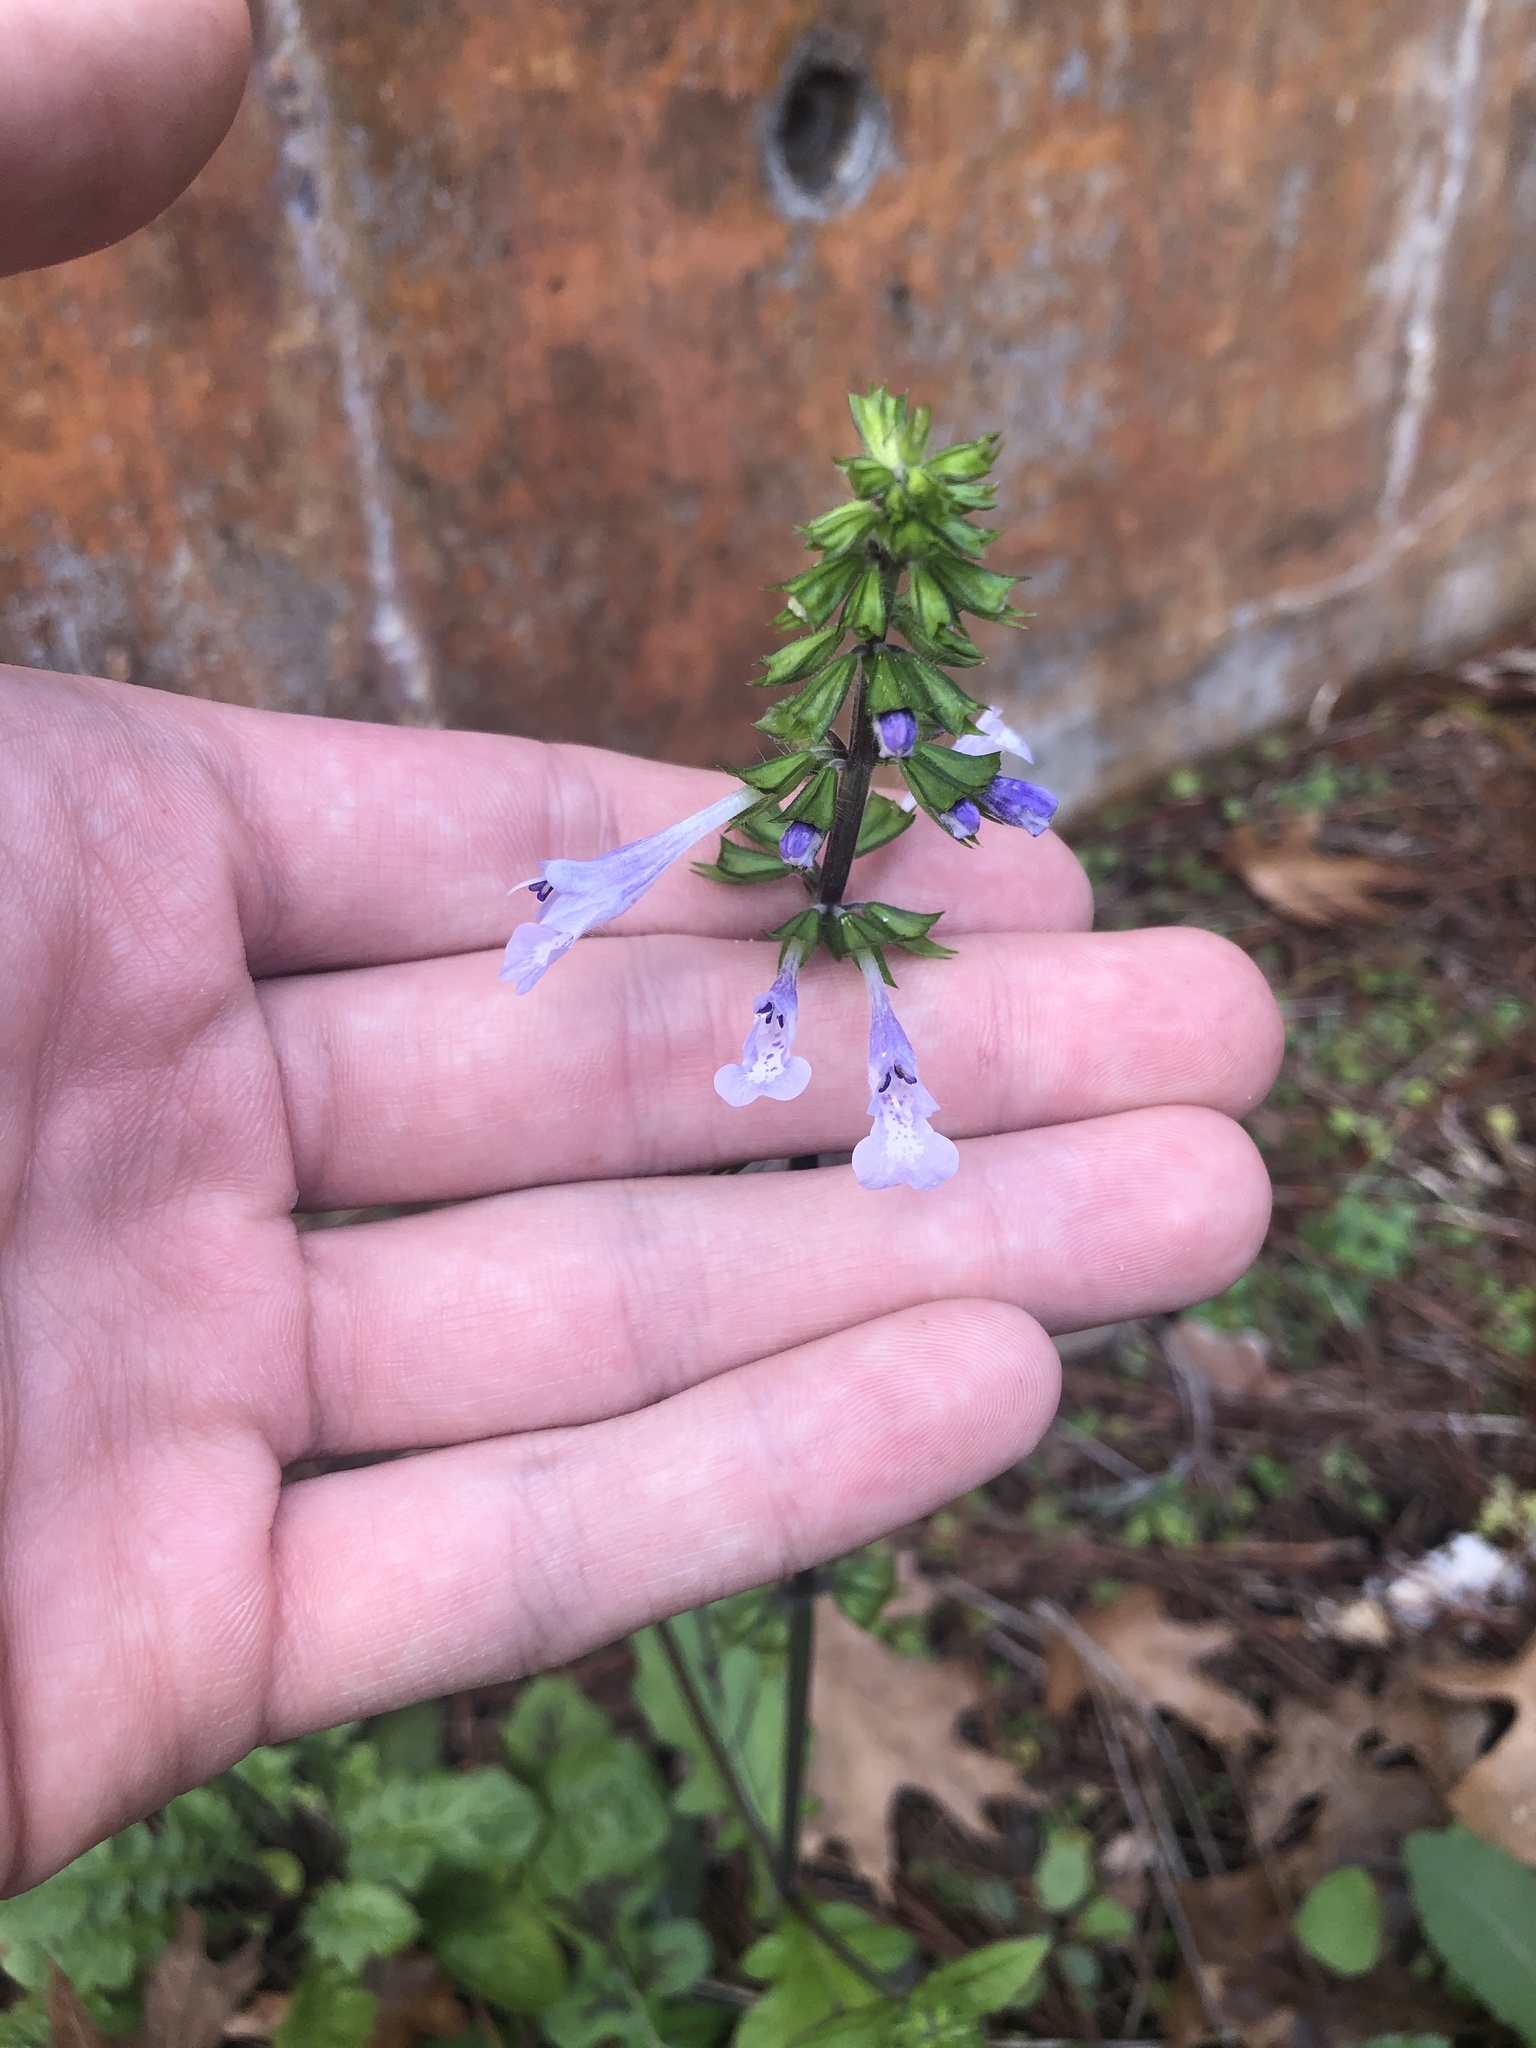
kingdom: Plantae
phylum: Tracheophyta
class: Magnoliopsida
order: Lamiales
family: Lamiaceae
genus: Salvia
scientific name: Salvia lyrata
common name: Cancerweed
